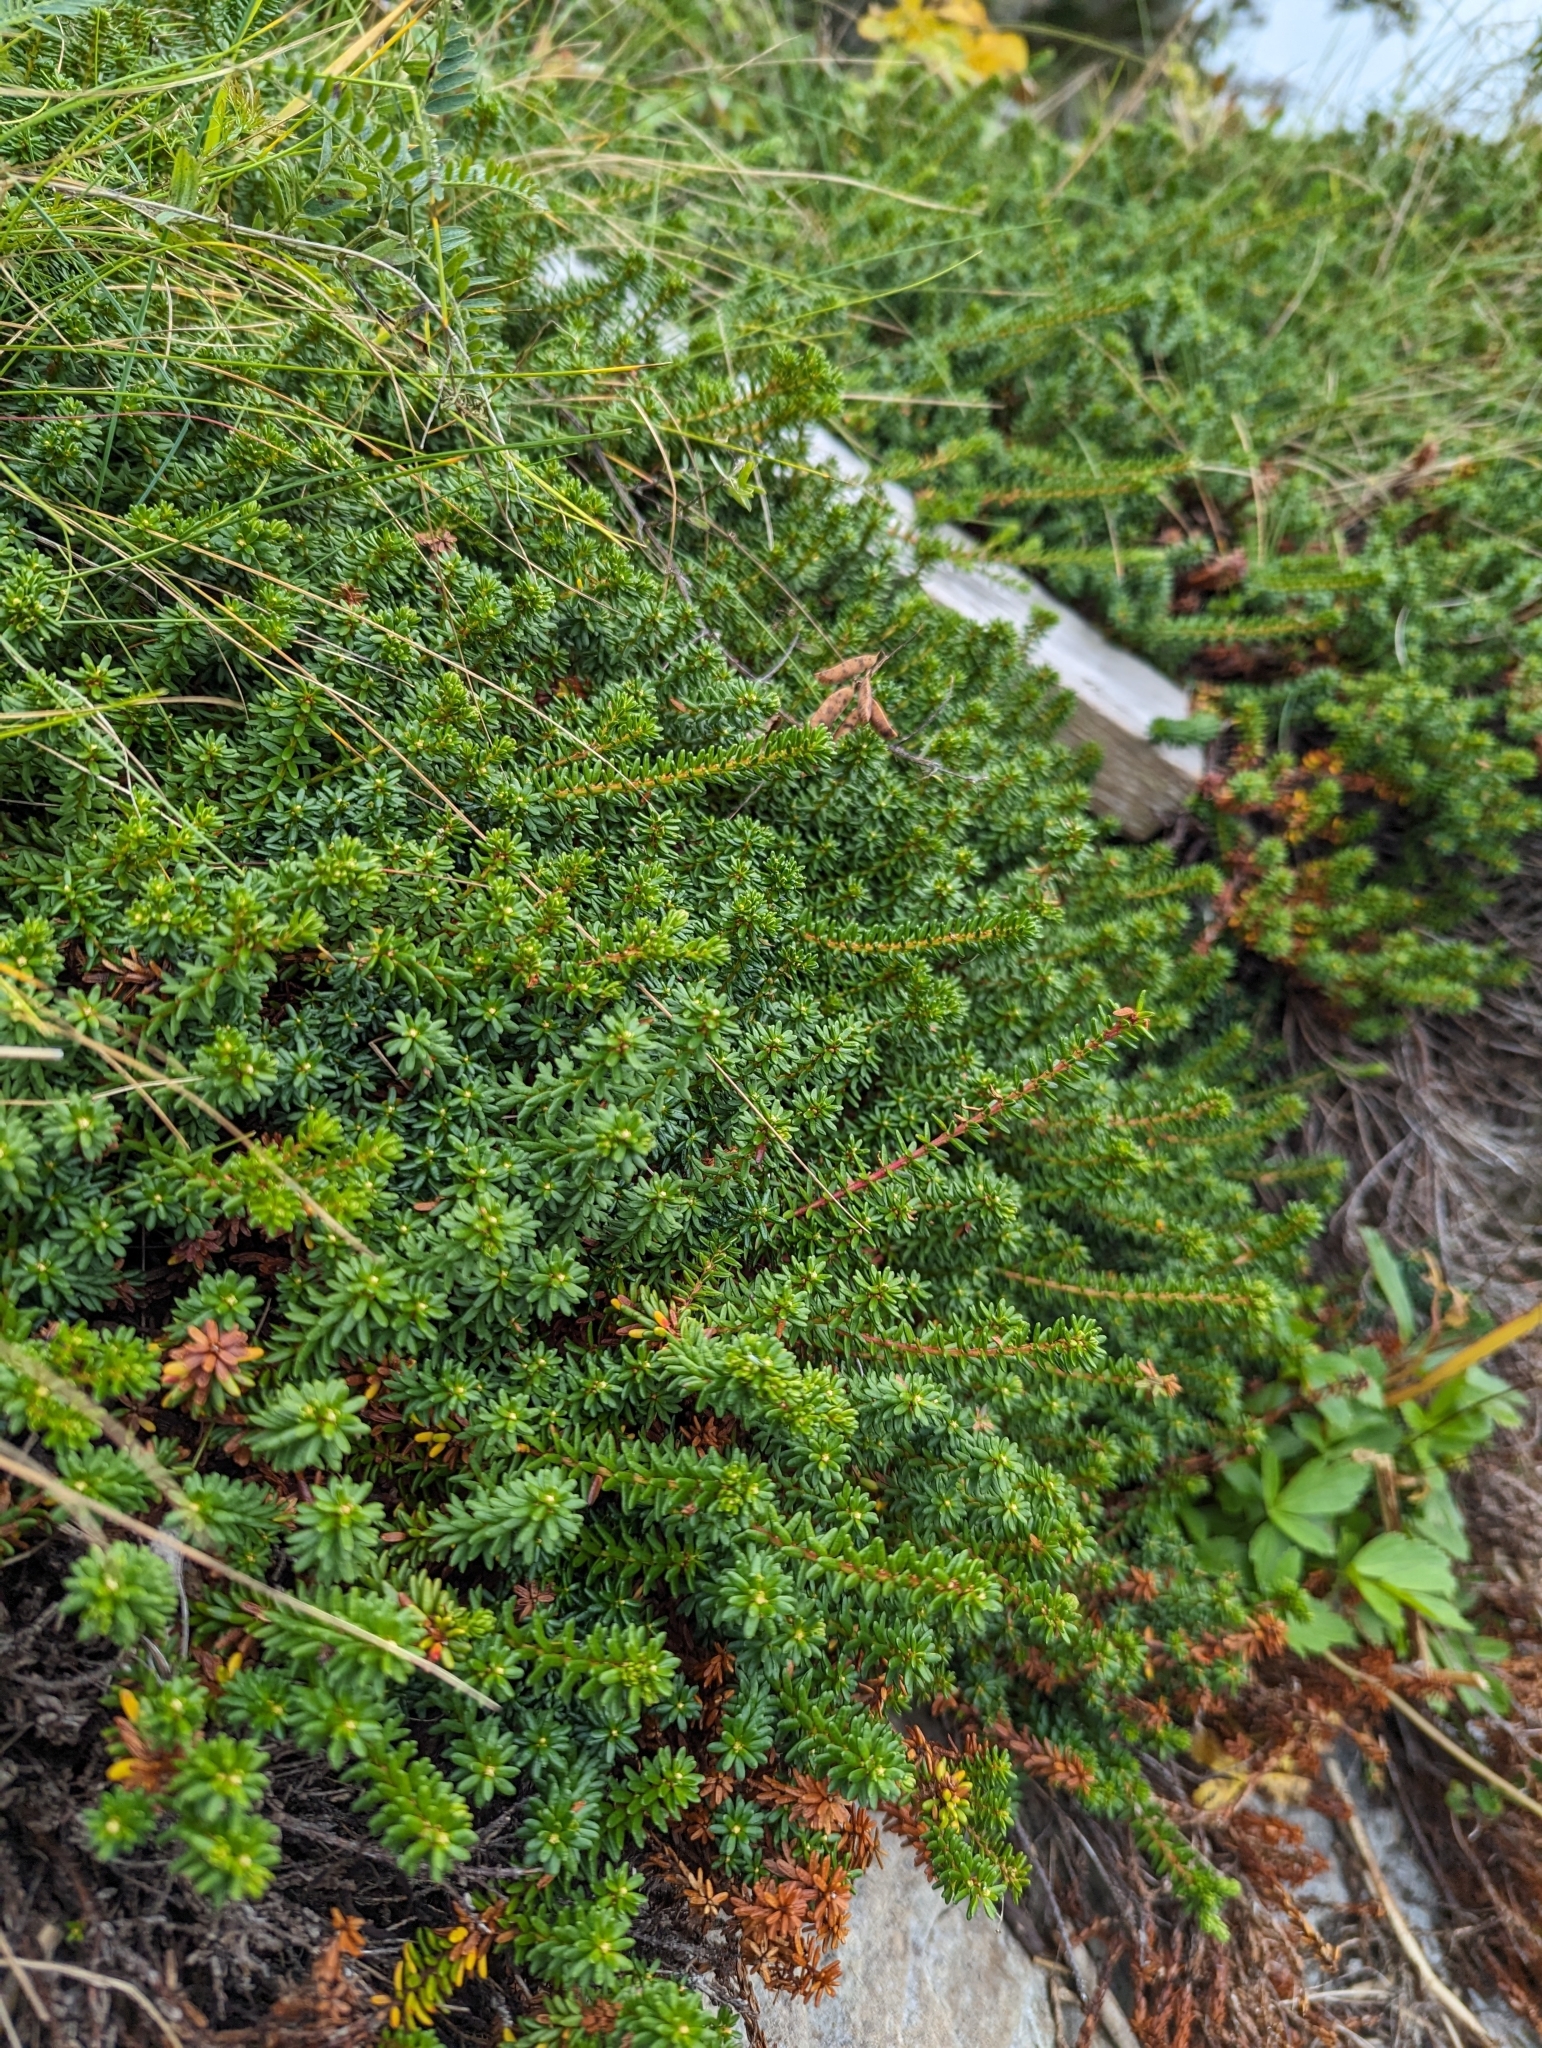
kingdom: Plantae
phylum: Tracheophyta
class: Magnoliopsida
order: Ericales
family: Ericaceae
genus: Empetrum
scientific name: Empetrum nigrum
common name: Black crowberry
